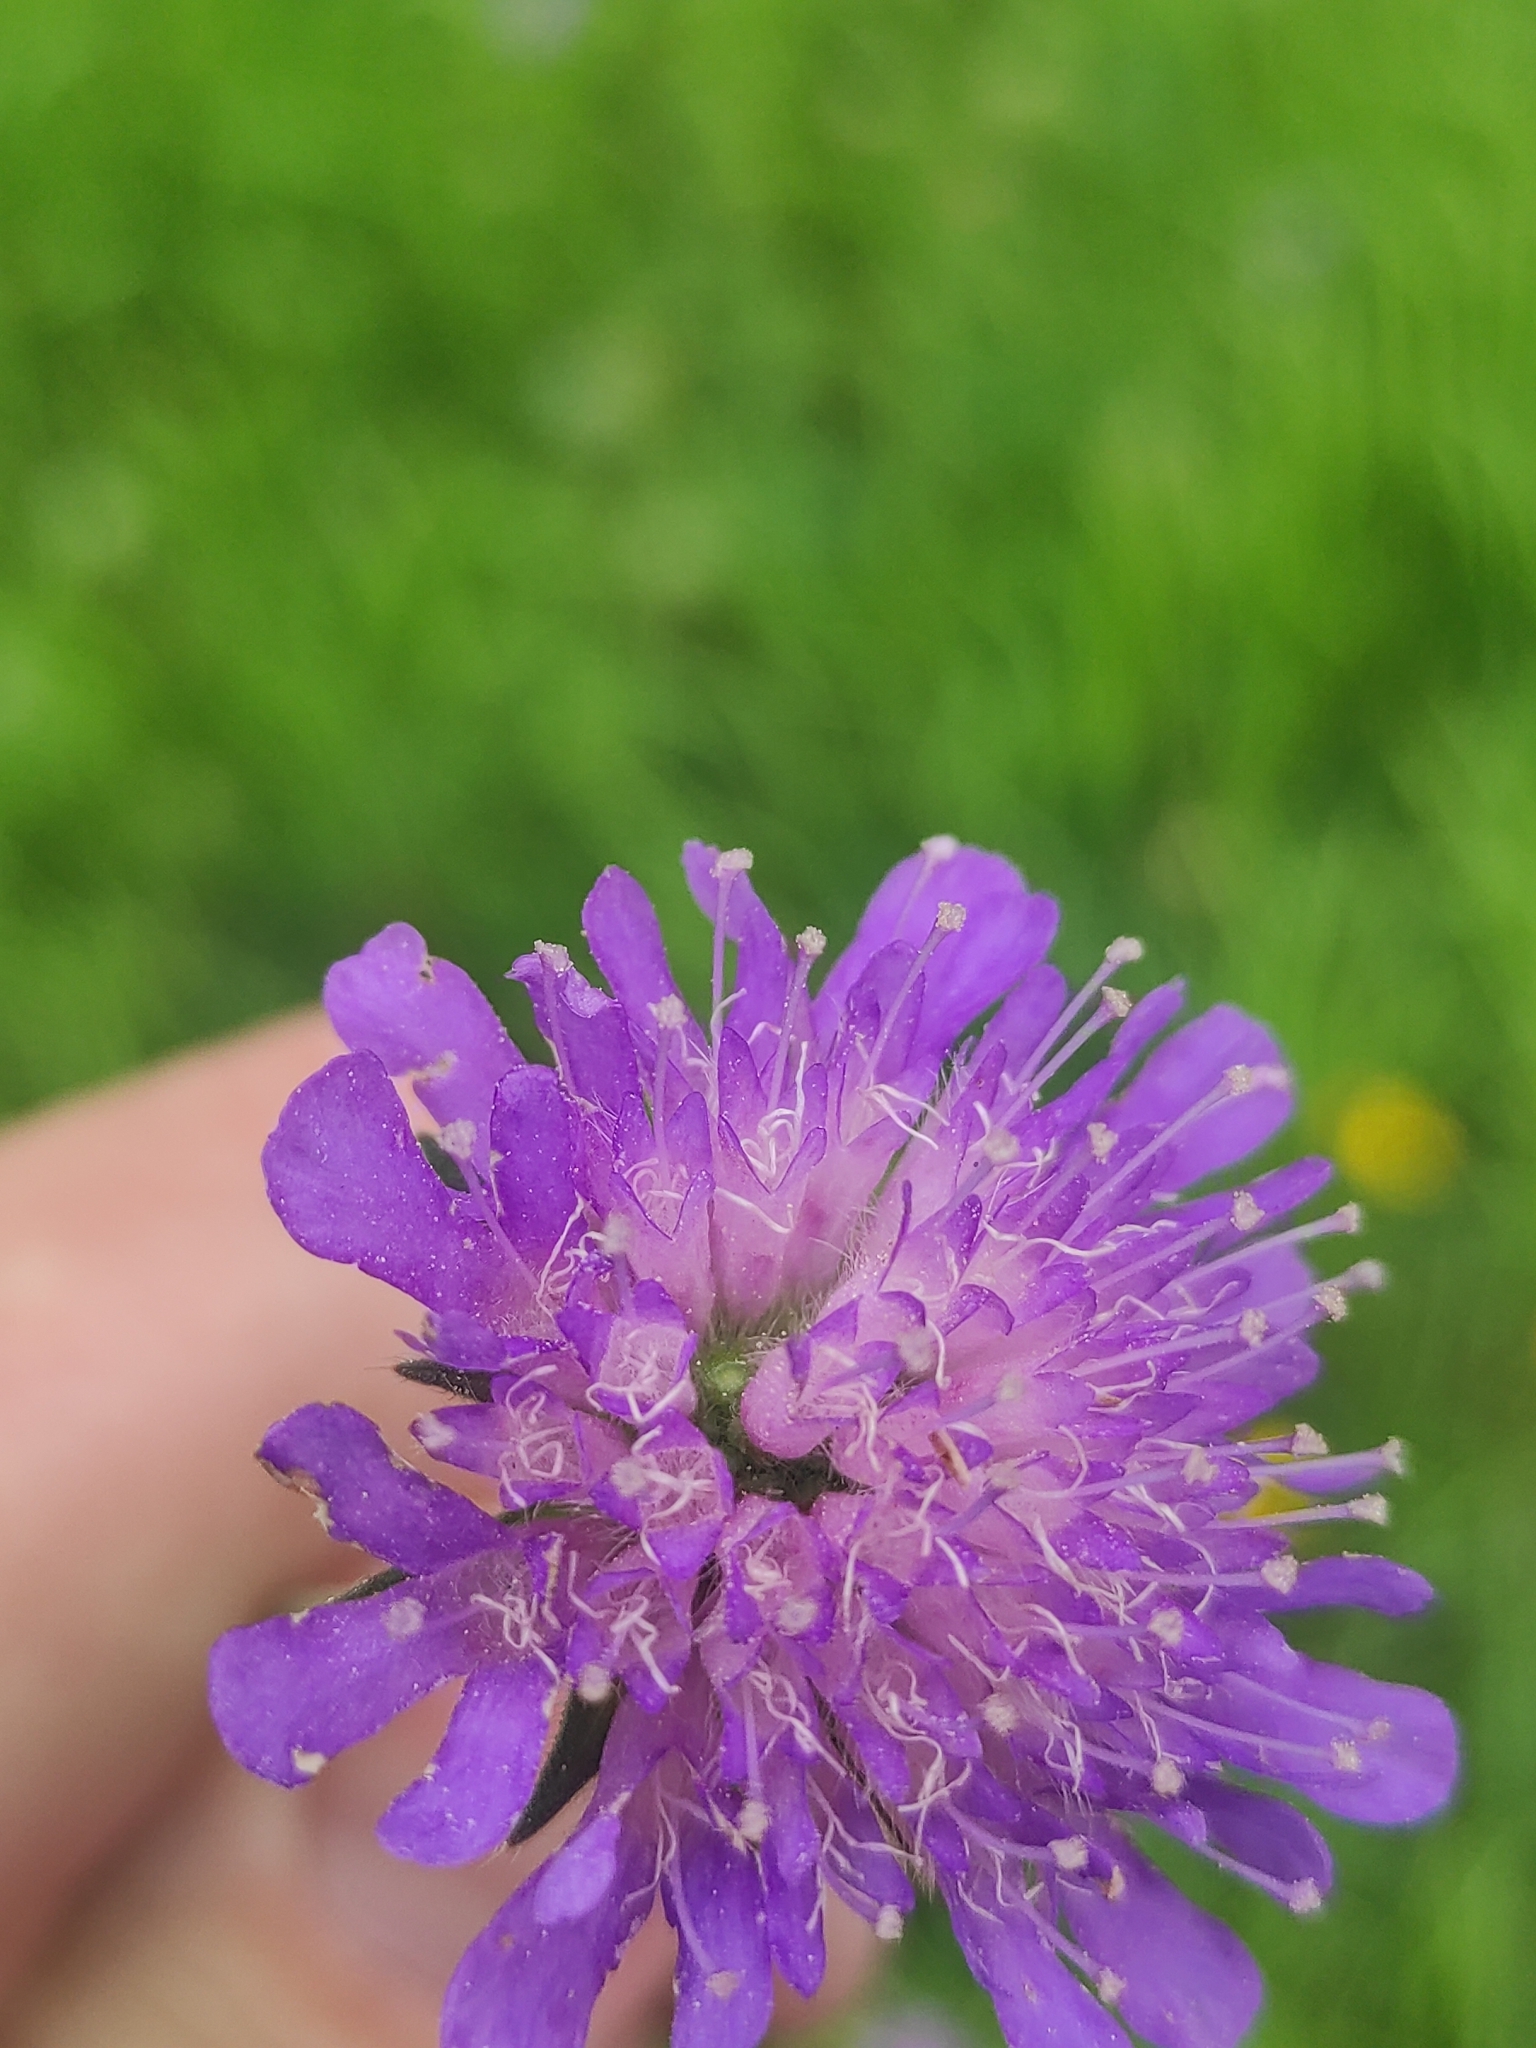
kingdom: Plantae
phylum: Tracheophyta
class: Magnoliopsida
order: Dipsacales
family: Caprifoliaceae
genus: Knautia
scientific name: Knautia arvensis
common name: Field scabiosa
